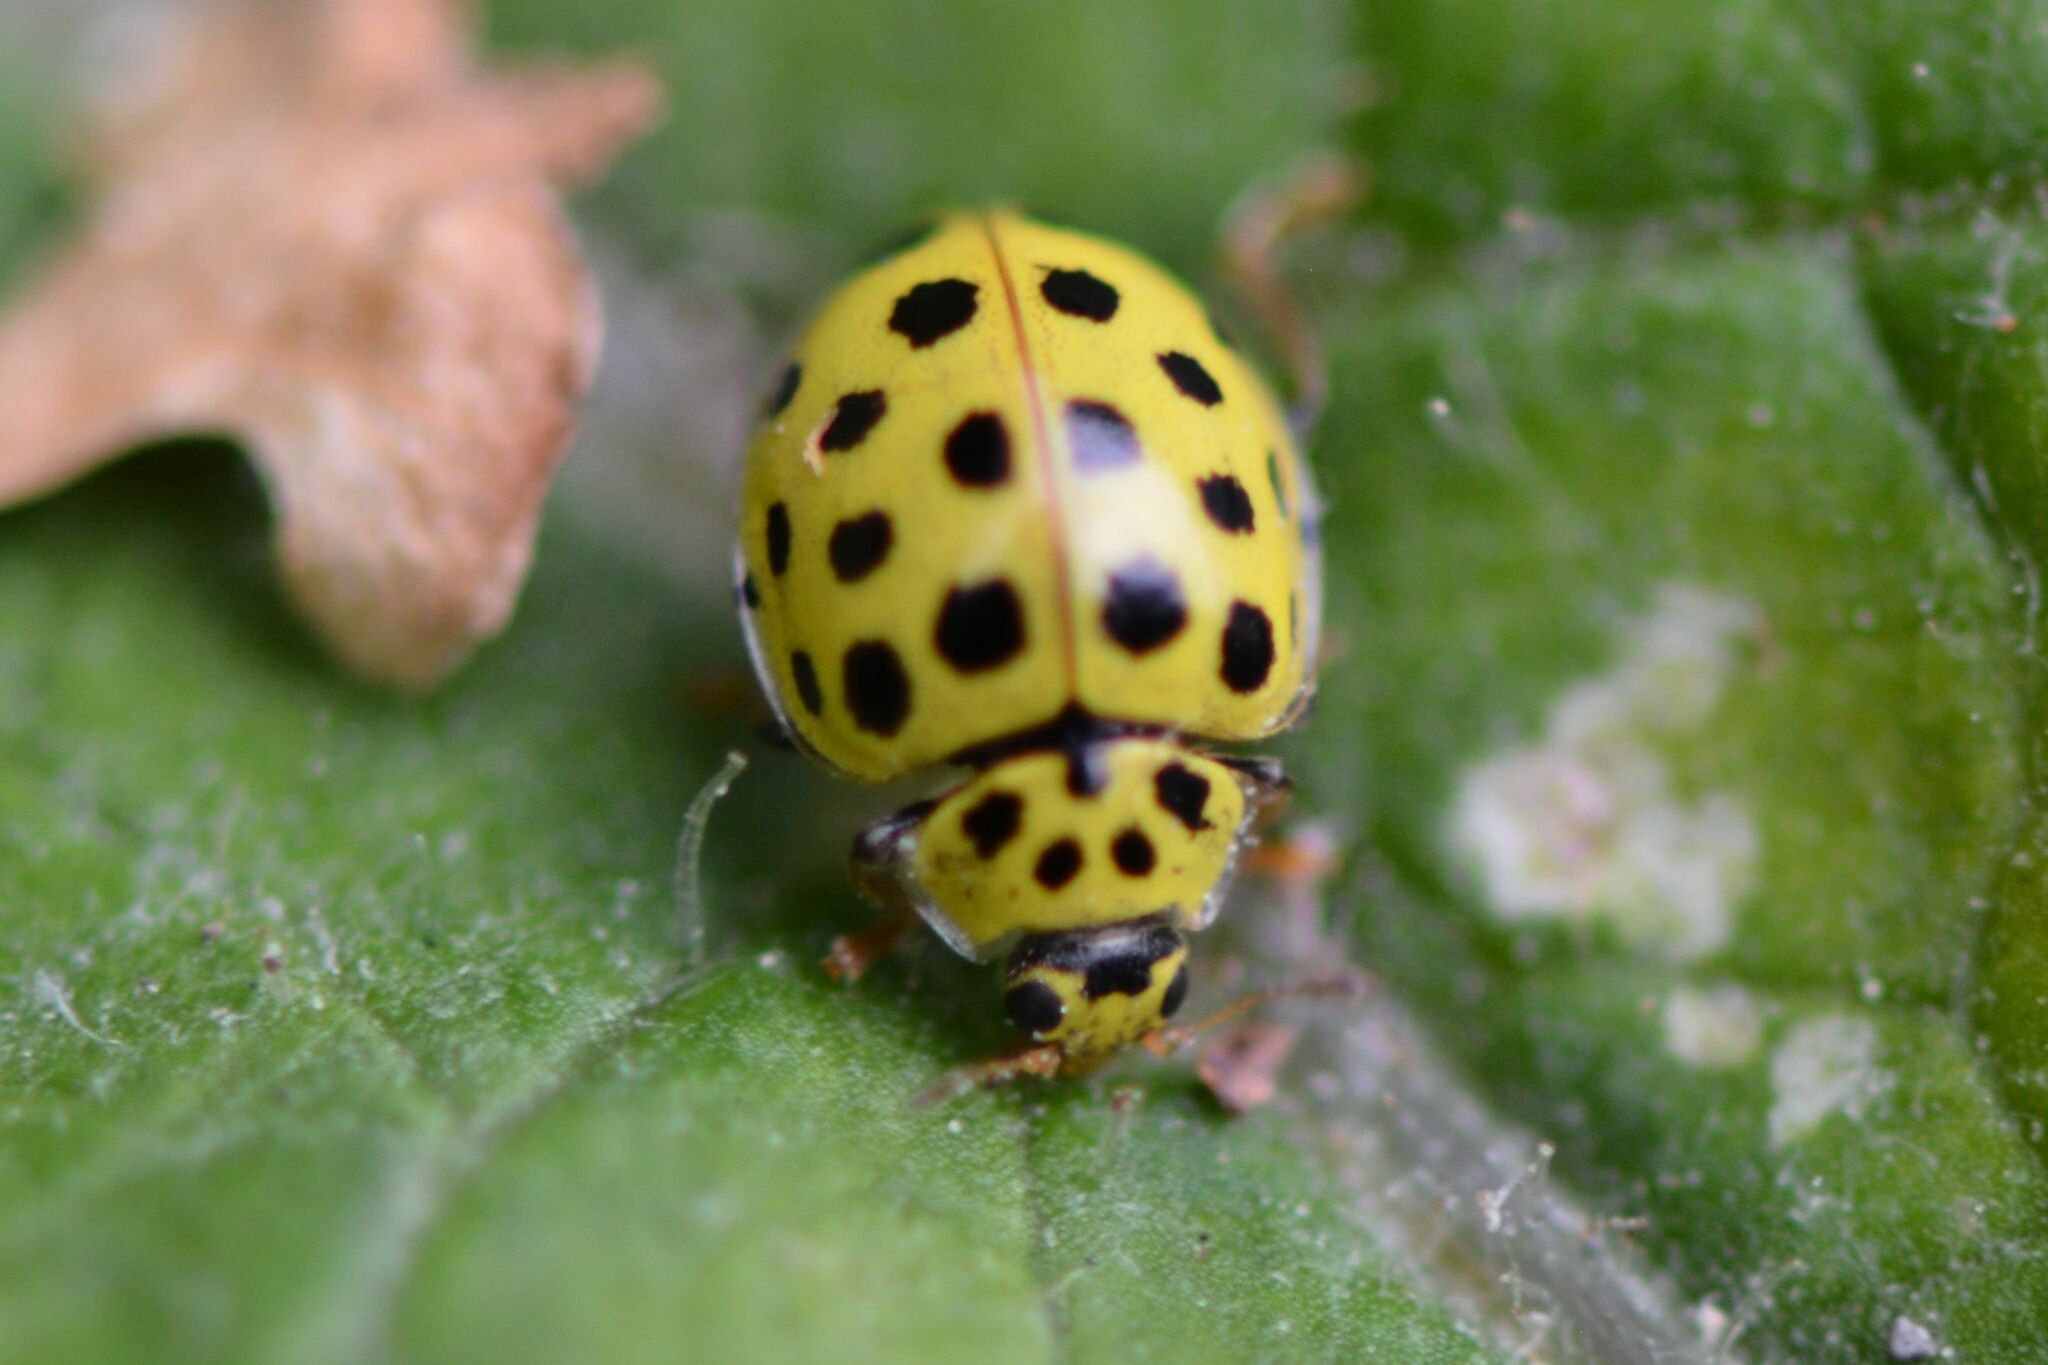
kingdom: Animalia
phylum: Arthropoda
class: Insecta
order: Coleoptera
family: Coccinellidae
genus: Psyllobora
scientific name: Psyllobora vigintiduopunctata
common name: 22-spot ladybird
